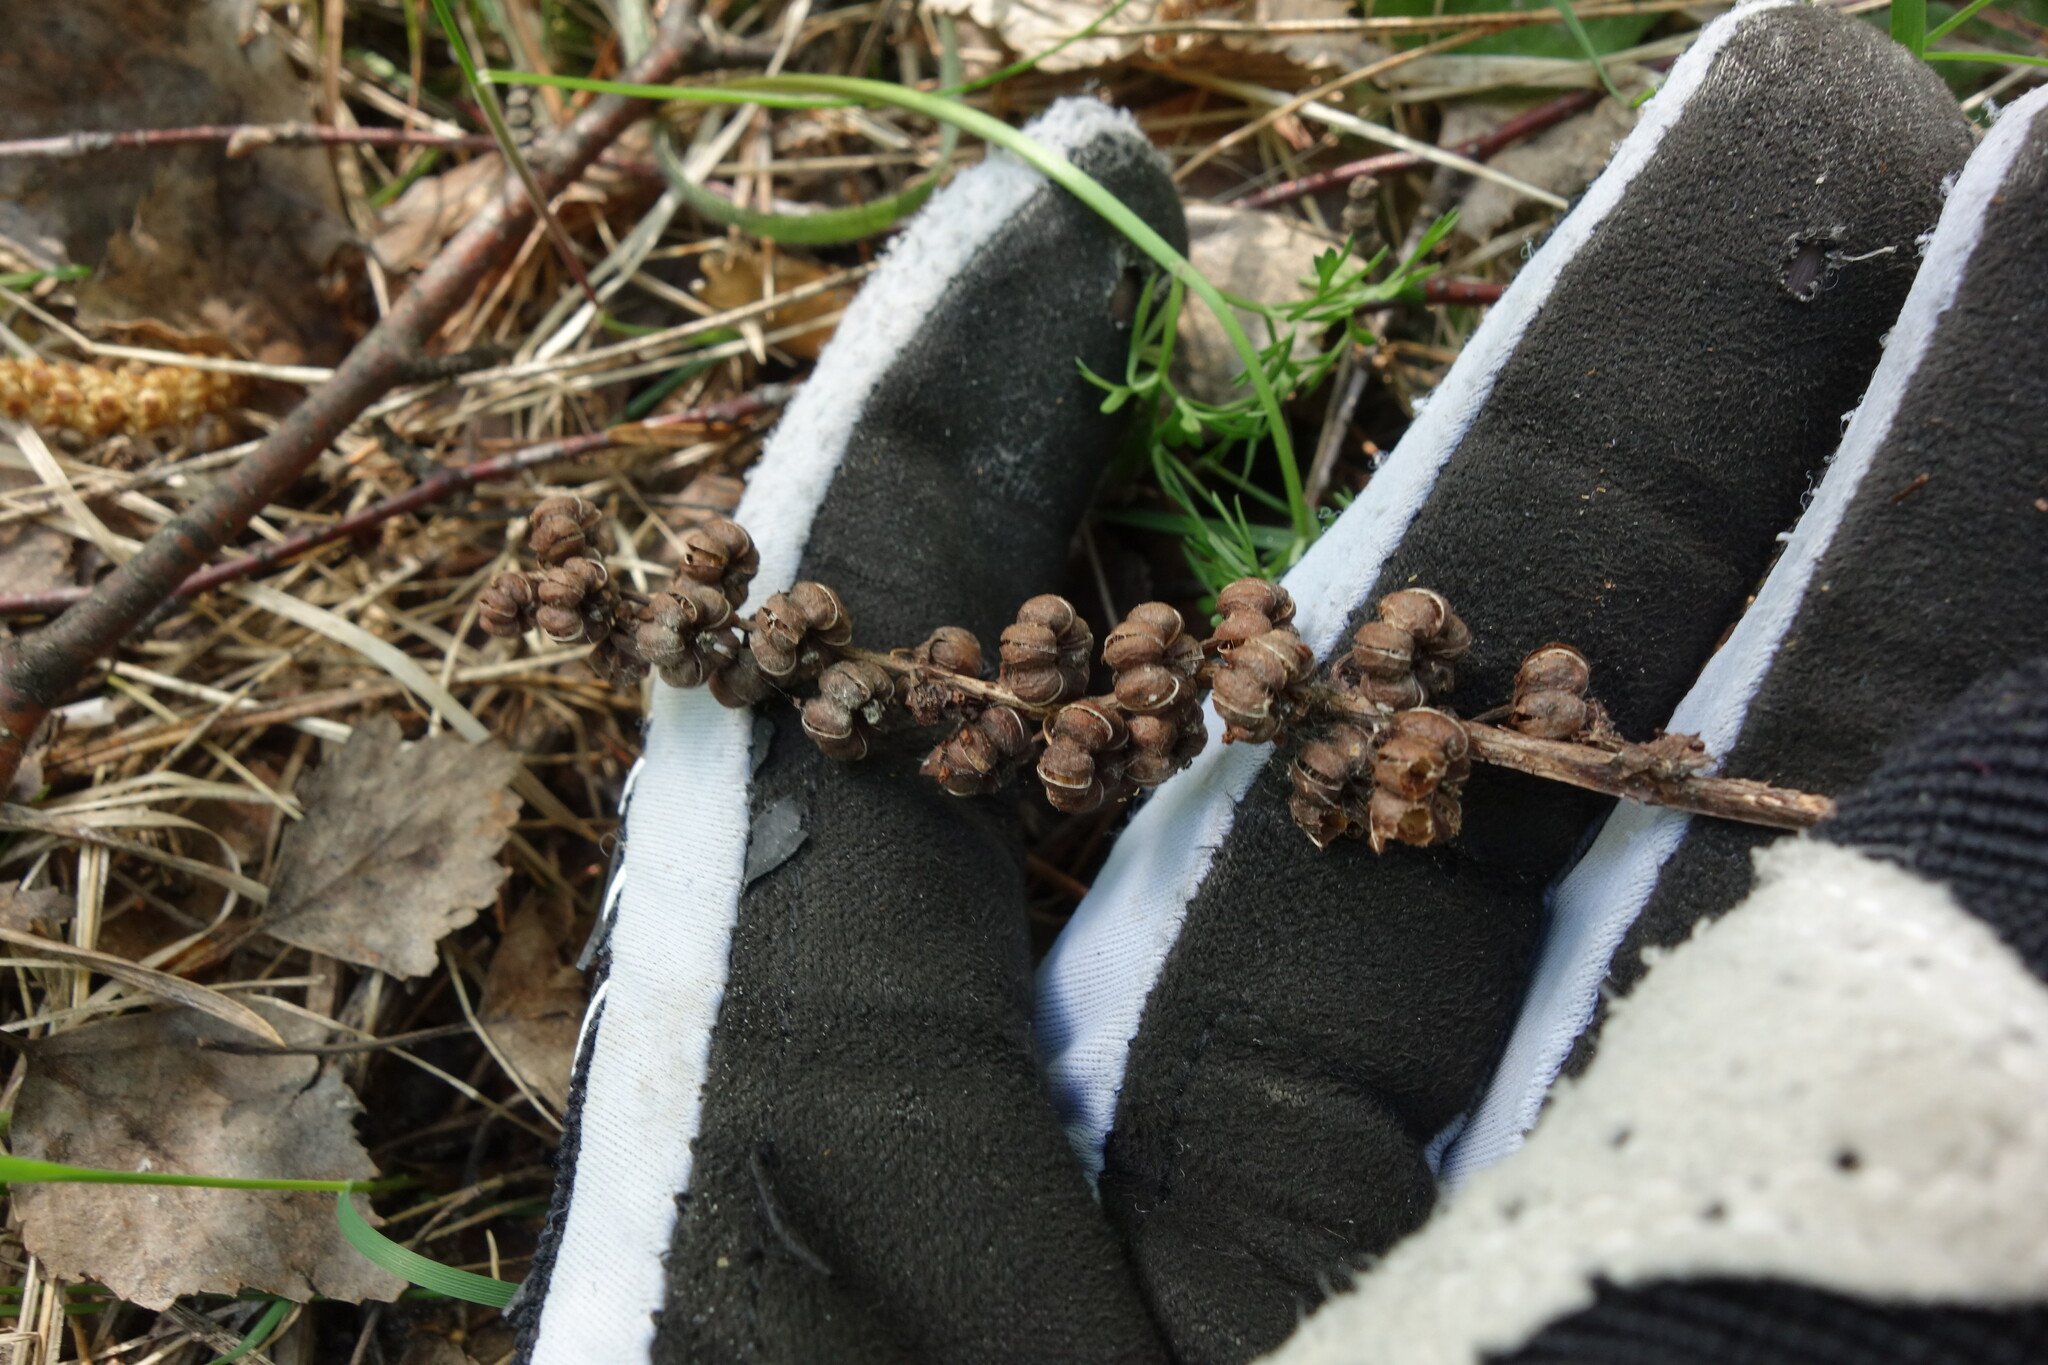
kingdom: Plantae
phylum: Tracheophyta
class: Magnoliopsida
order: Ericales
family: Ericaceae
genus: Pyrola
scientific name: Pyrola minor
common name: Common wintergreen
